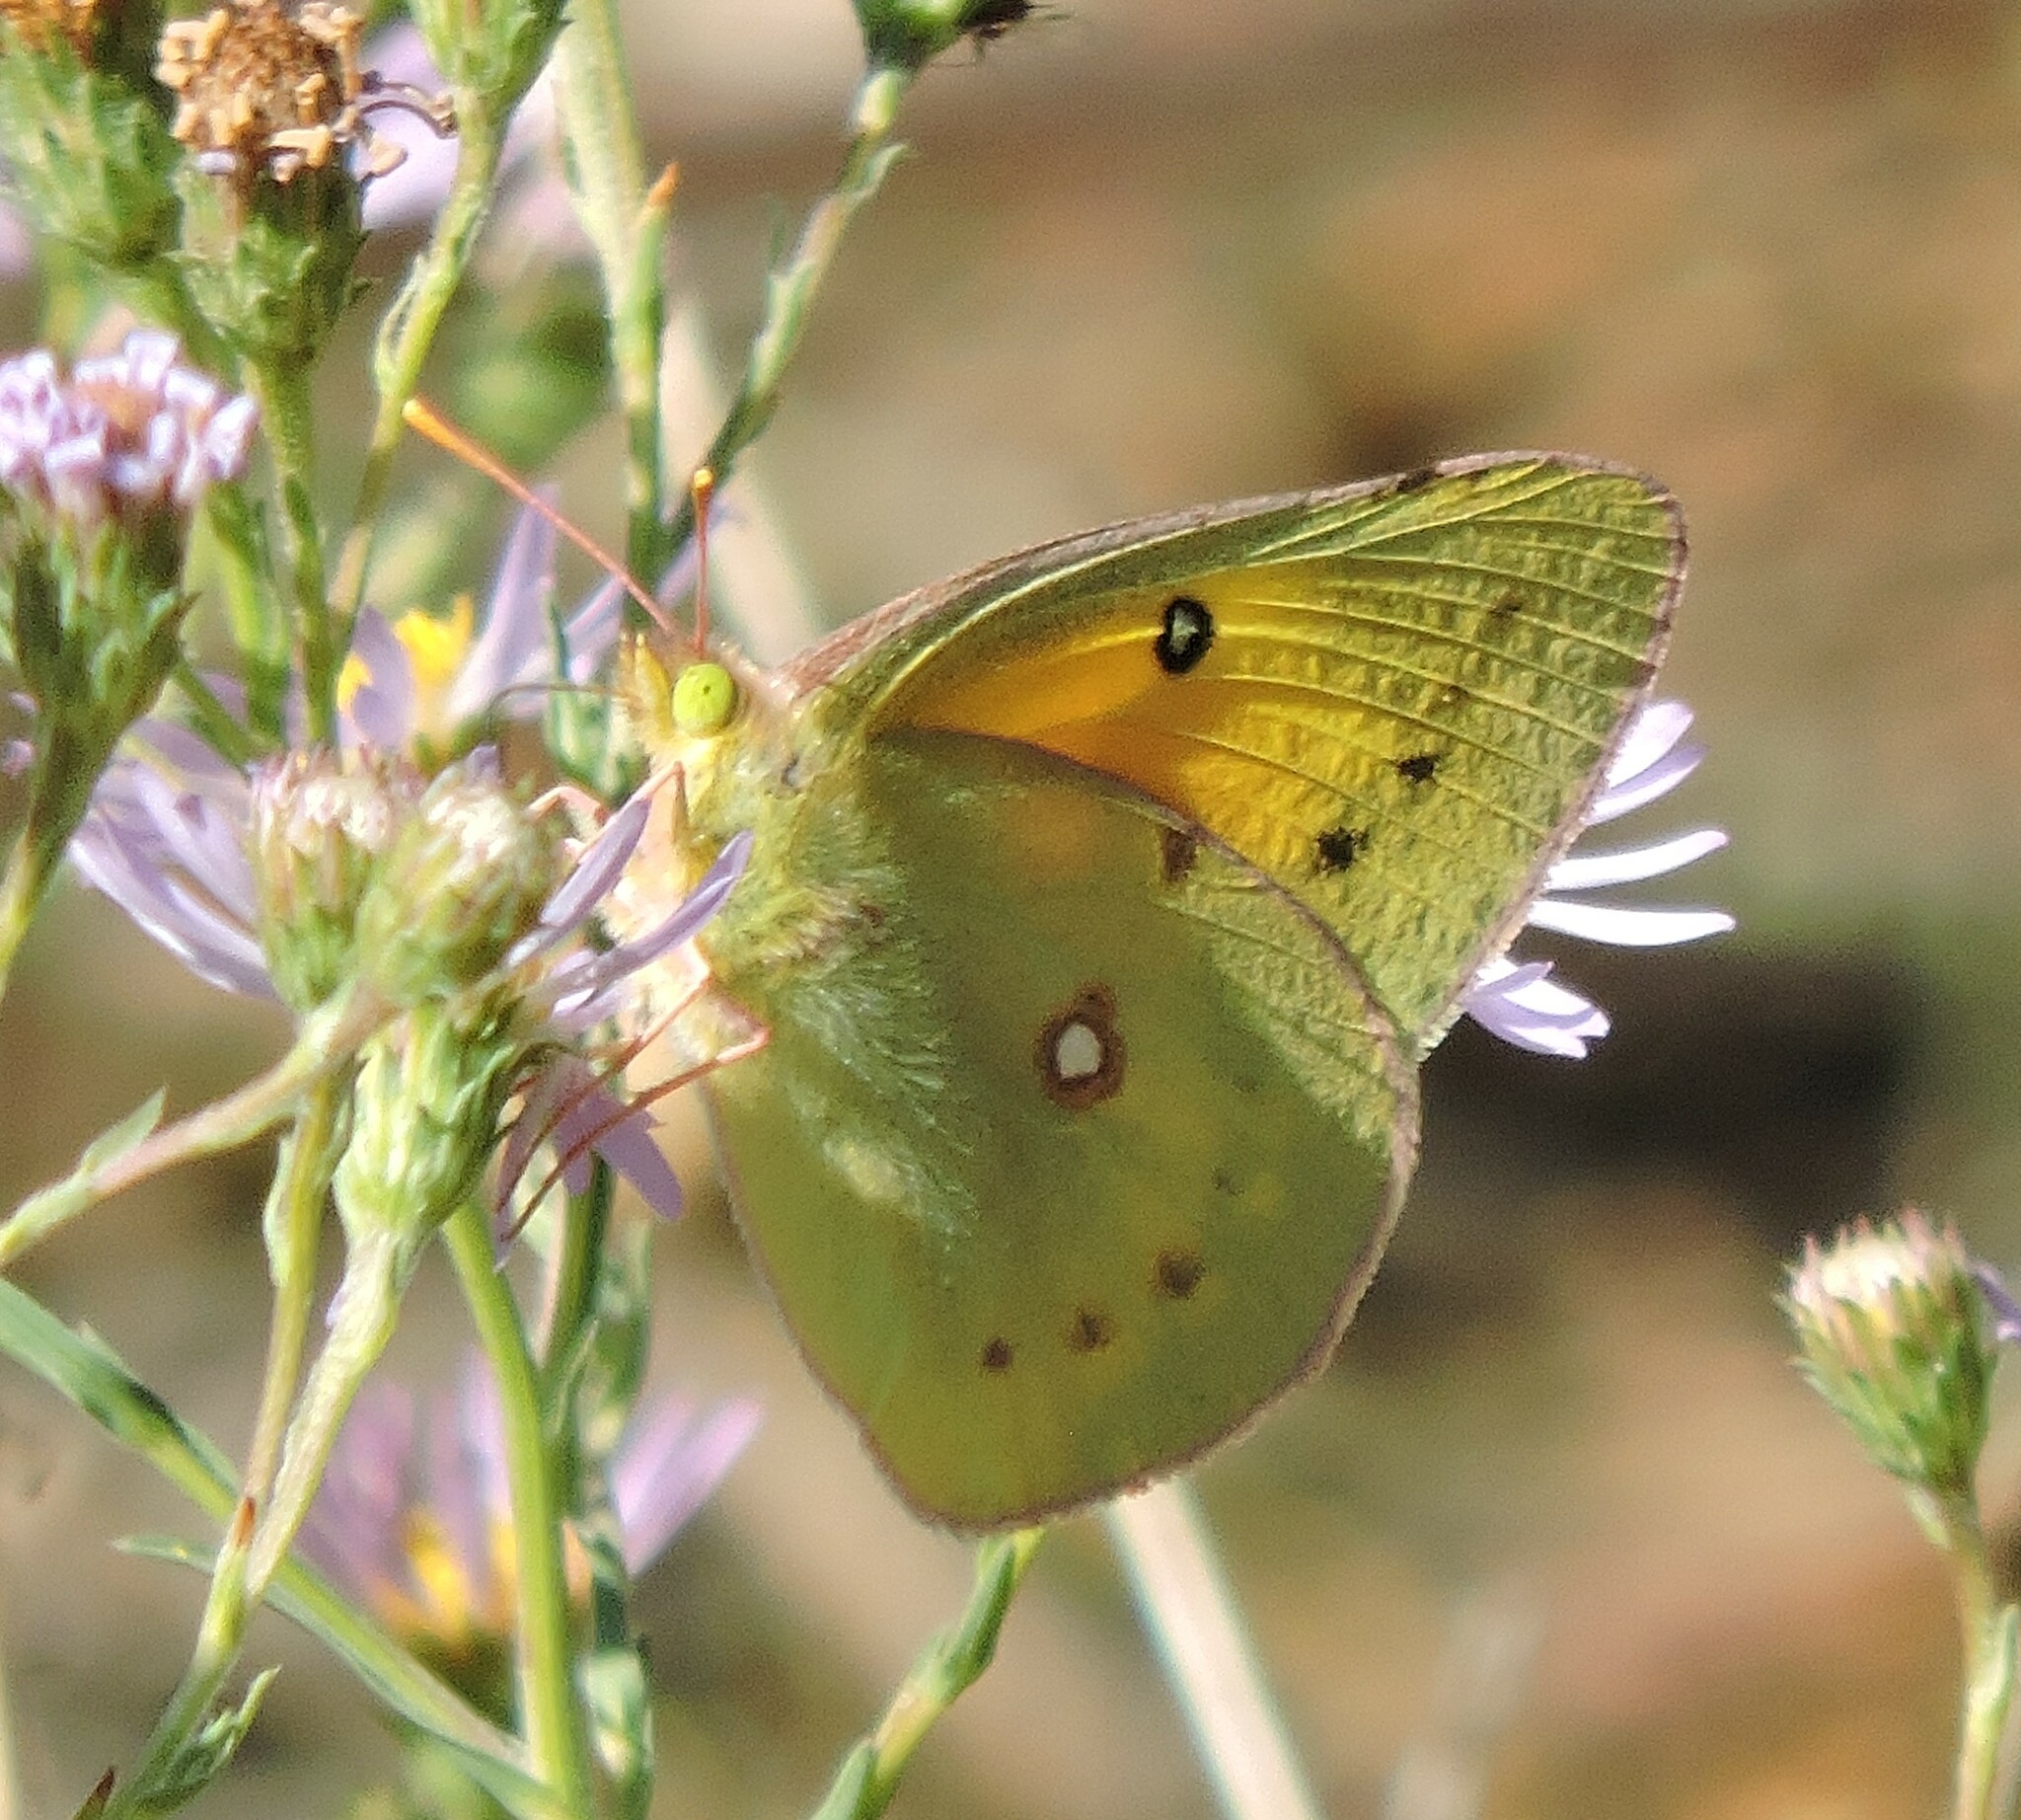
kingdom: Animalia
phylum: Arthropoda
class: Insecta
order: Lepidoptera
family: Pieridae
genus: Colias
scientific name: Colias eurytheme
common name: Alfalfa butterfly
